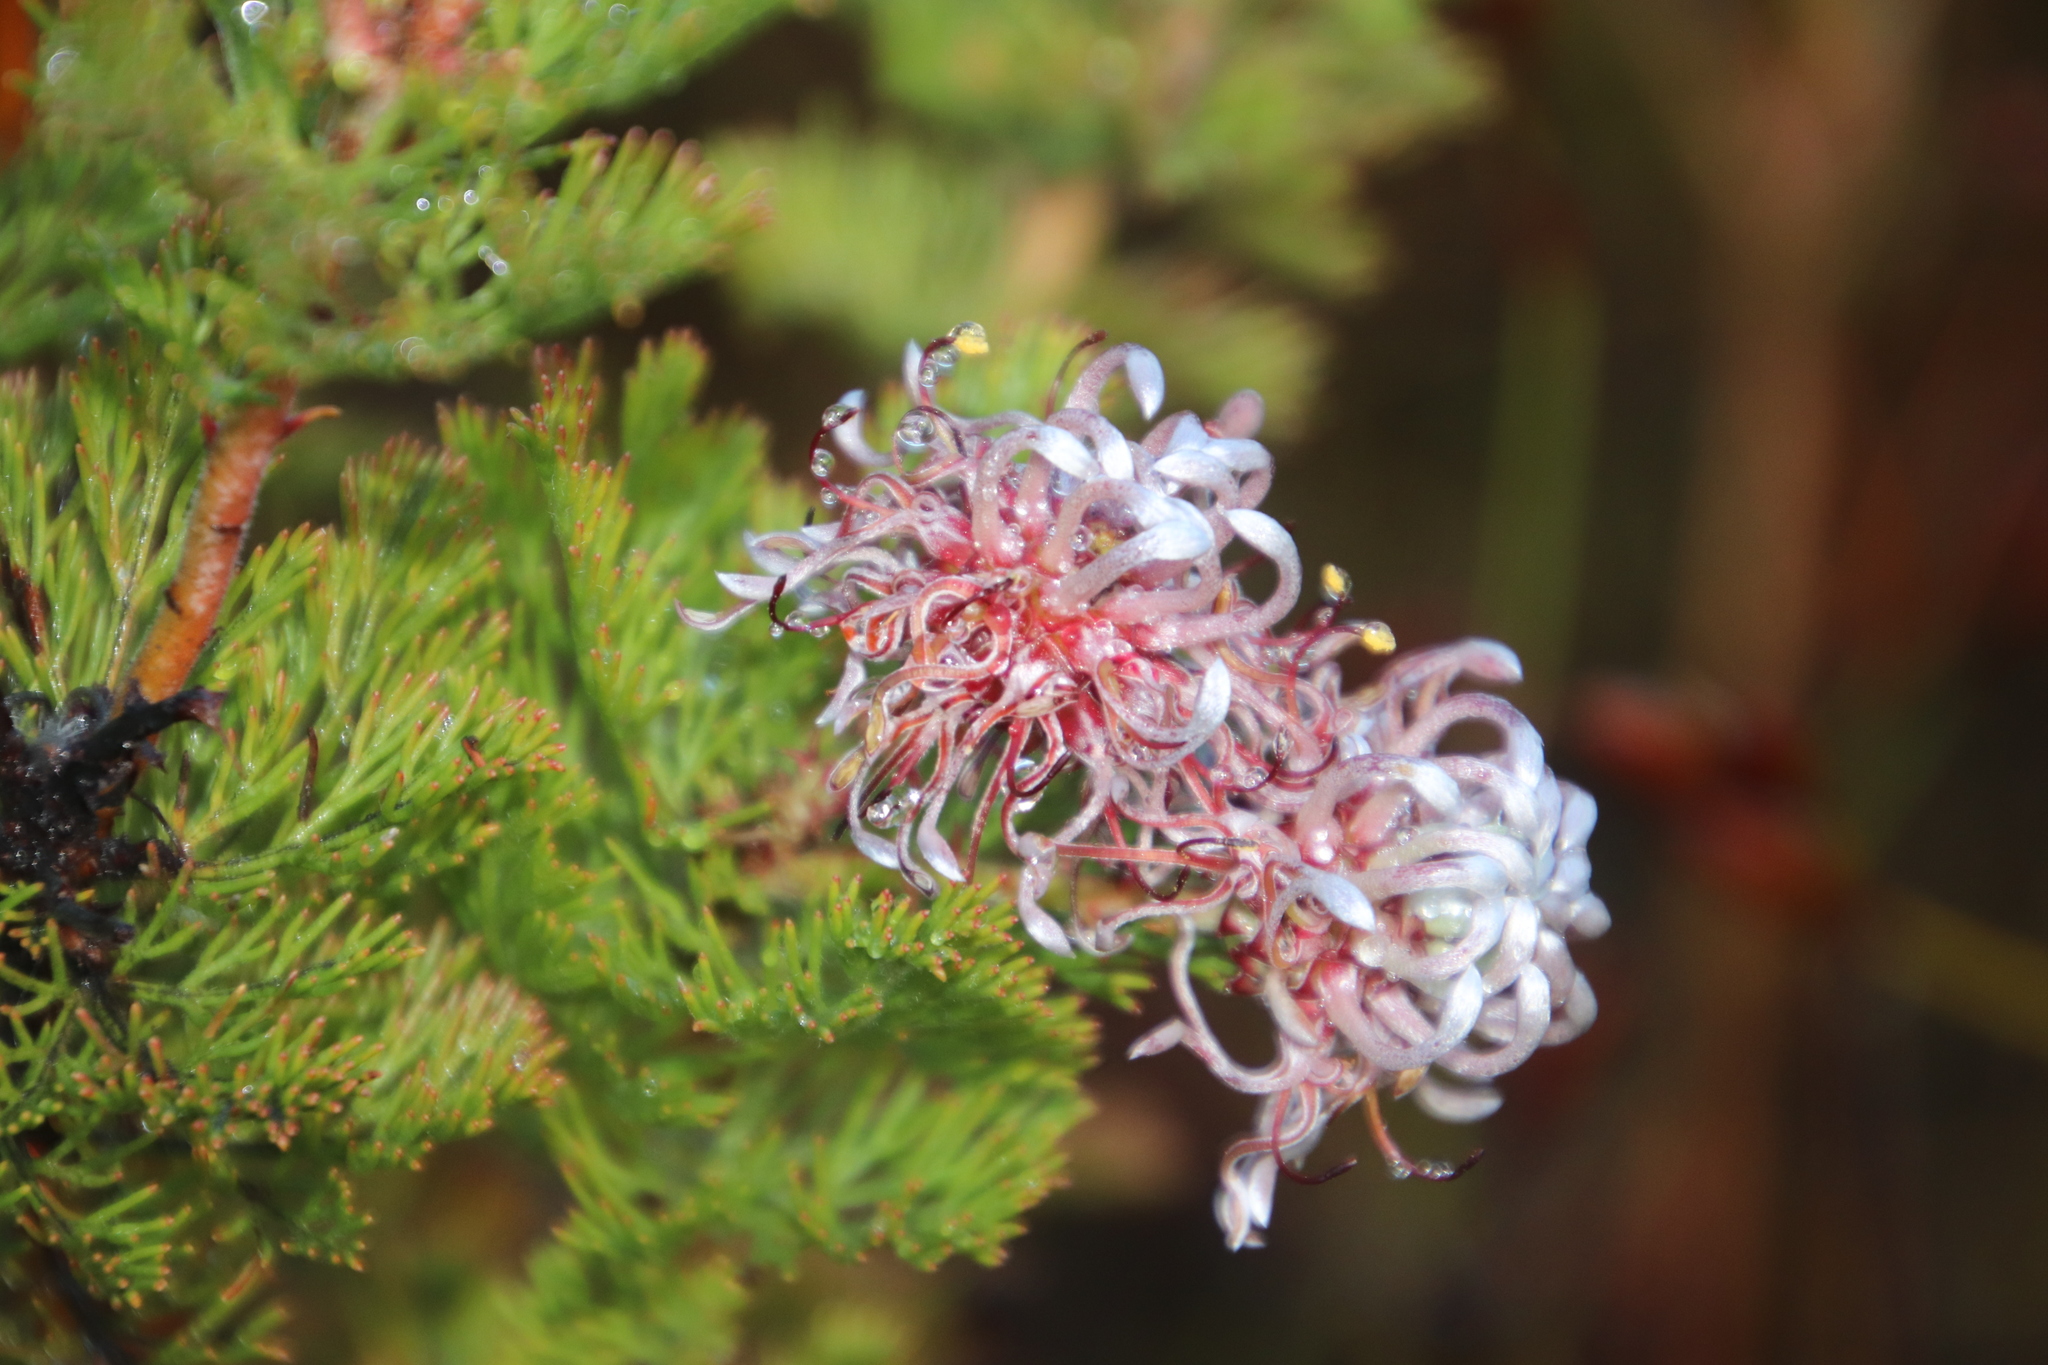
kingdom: Plantae
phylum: Tracheophyta
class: Magnoliopsida
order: Proteales
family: Proteaceae
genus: Serruria
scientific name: Serruria pedunculata
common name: Fan-leaf spiderhead
